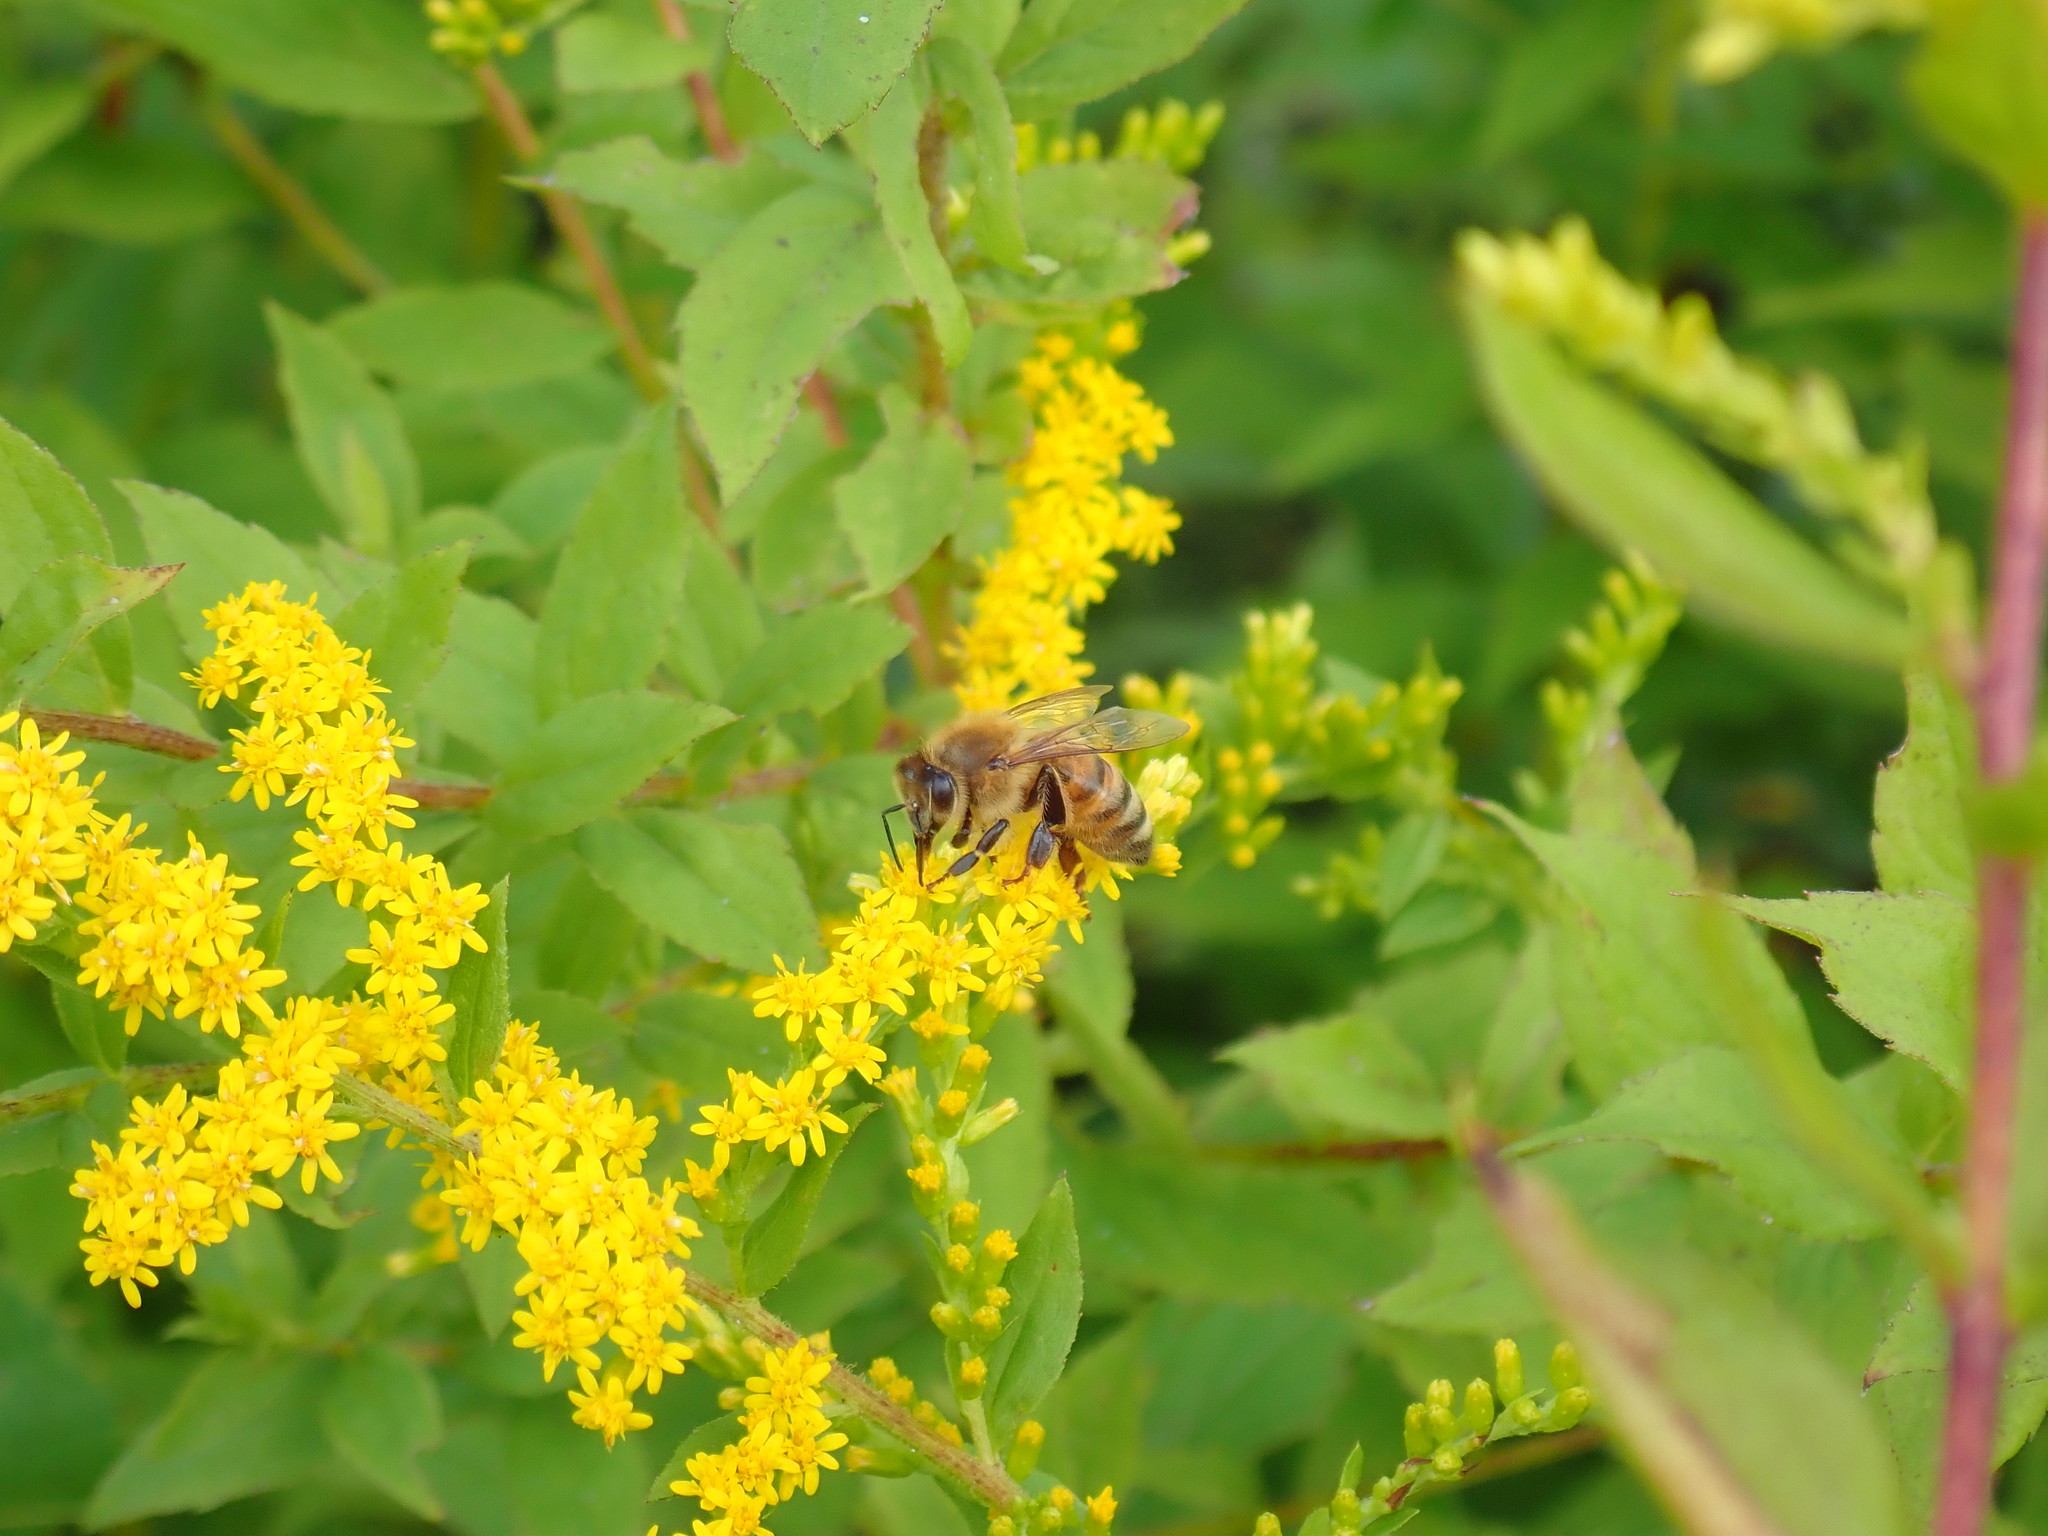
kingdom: Animalia
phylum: Arthropoda
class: Insecta
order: Hymenoptera
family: Apidae
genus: Apis
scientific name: Apis mellifera
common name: Honey bee
